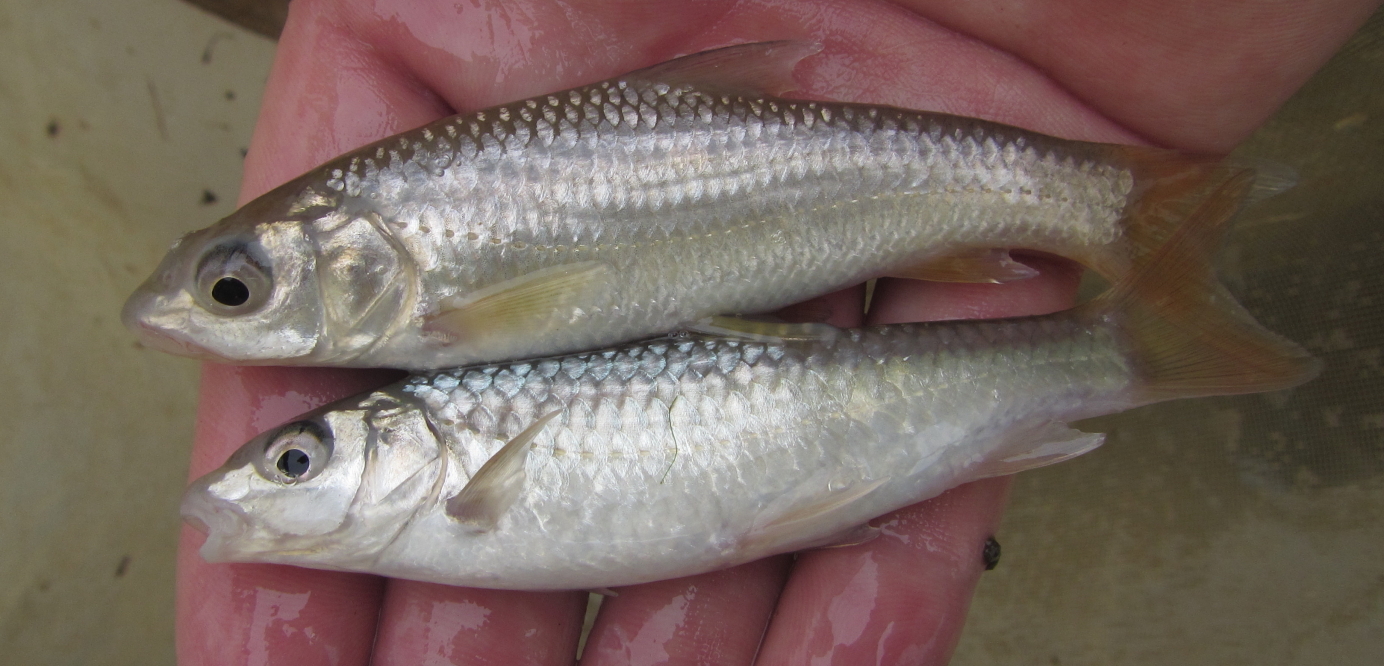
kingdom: Animalia
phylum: Chordata
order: Cypriniformes
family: Cyprinidae
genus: Labeobarbus
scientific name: Labeobarbus marequensis
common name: Largescale yellowfish
